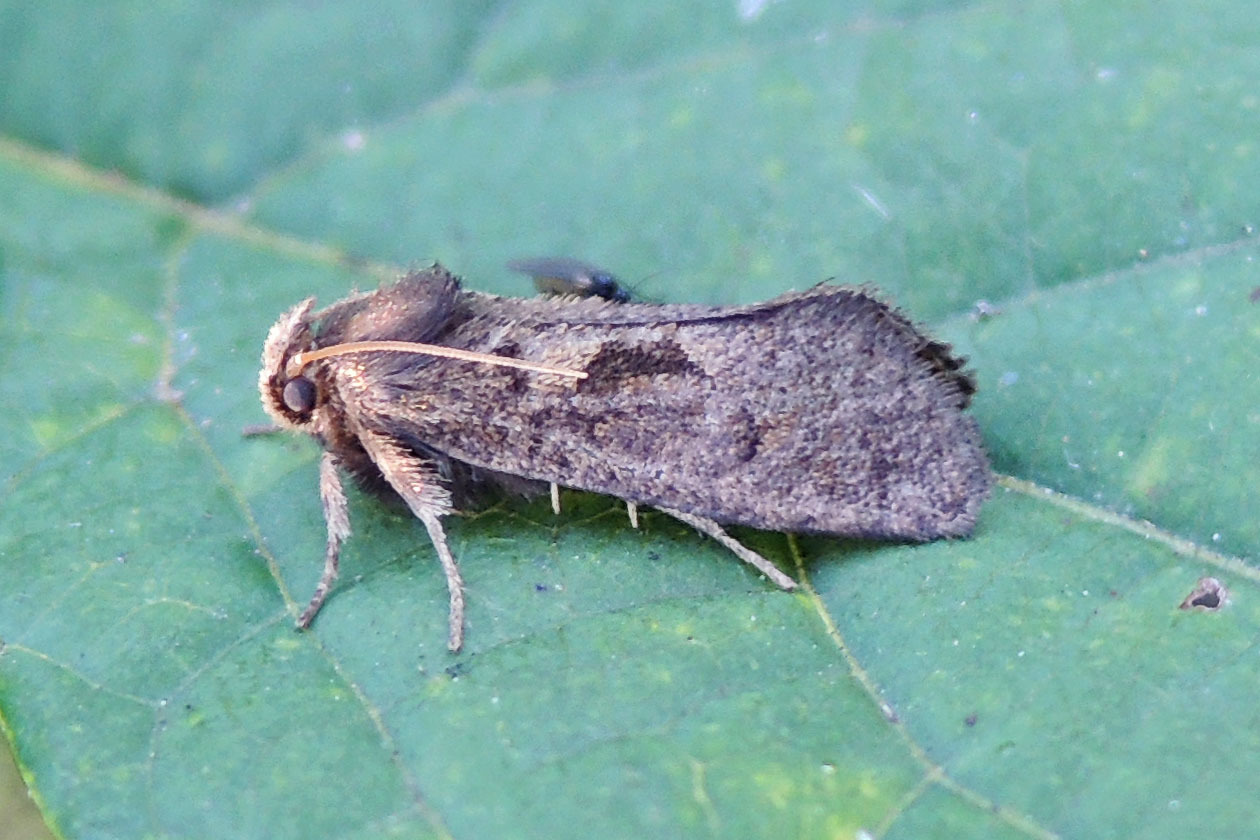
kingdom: Animalia
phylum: Arthropoda
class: Insecta
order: Lepidoptera
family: Tineidae
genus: Acrolophus
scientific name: Acrolophus mora
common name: Dark acrolophus
